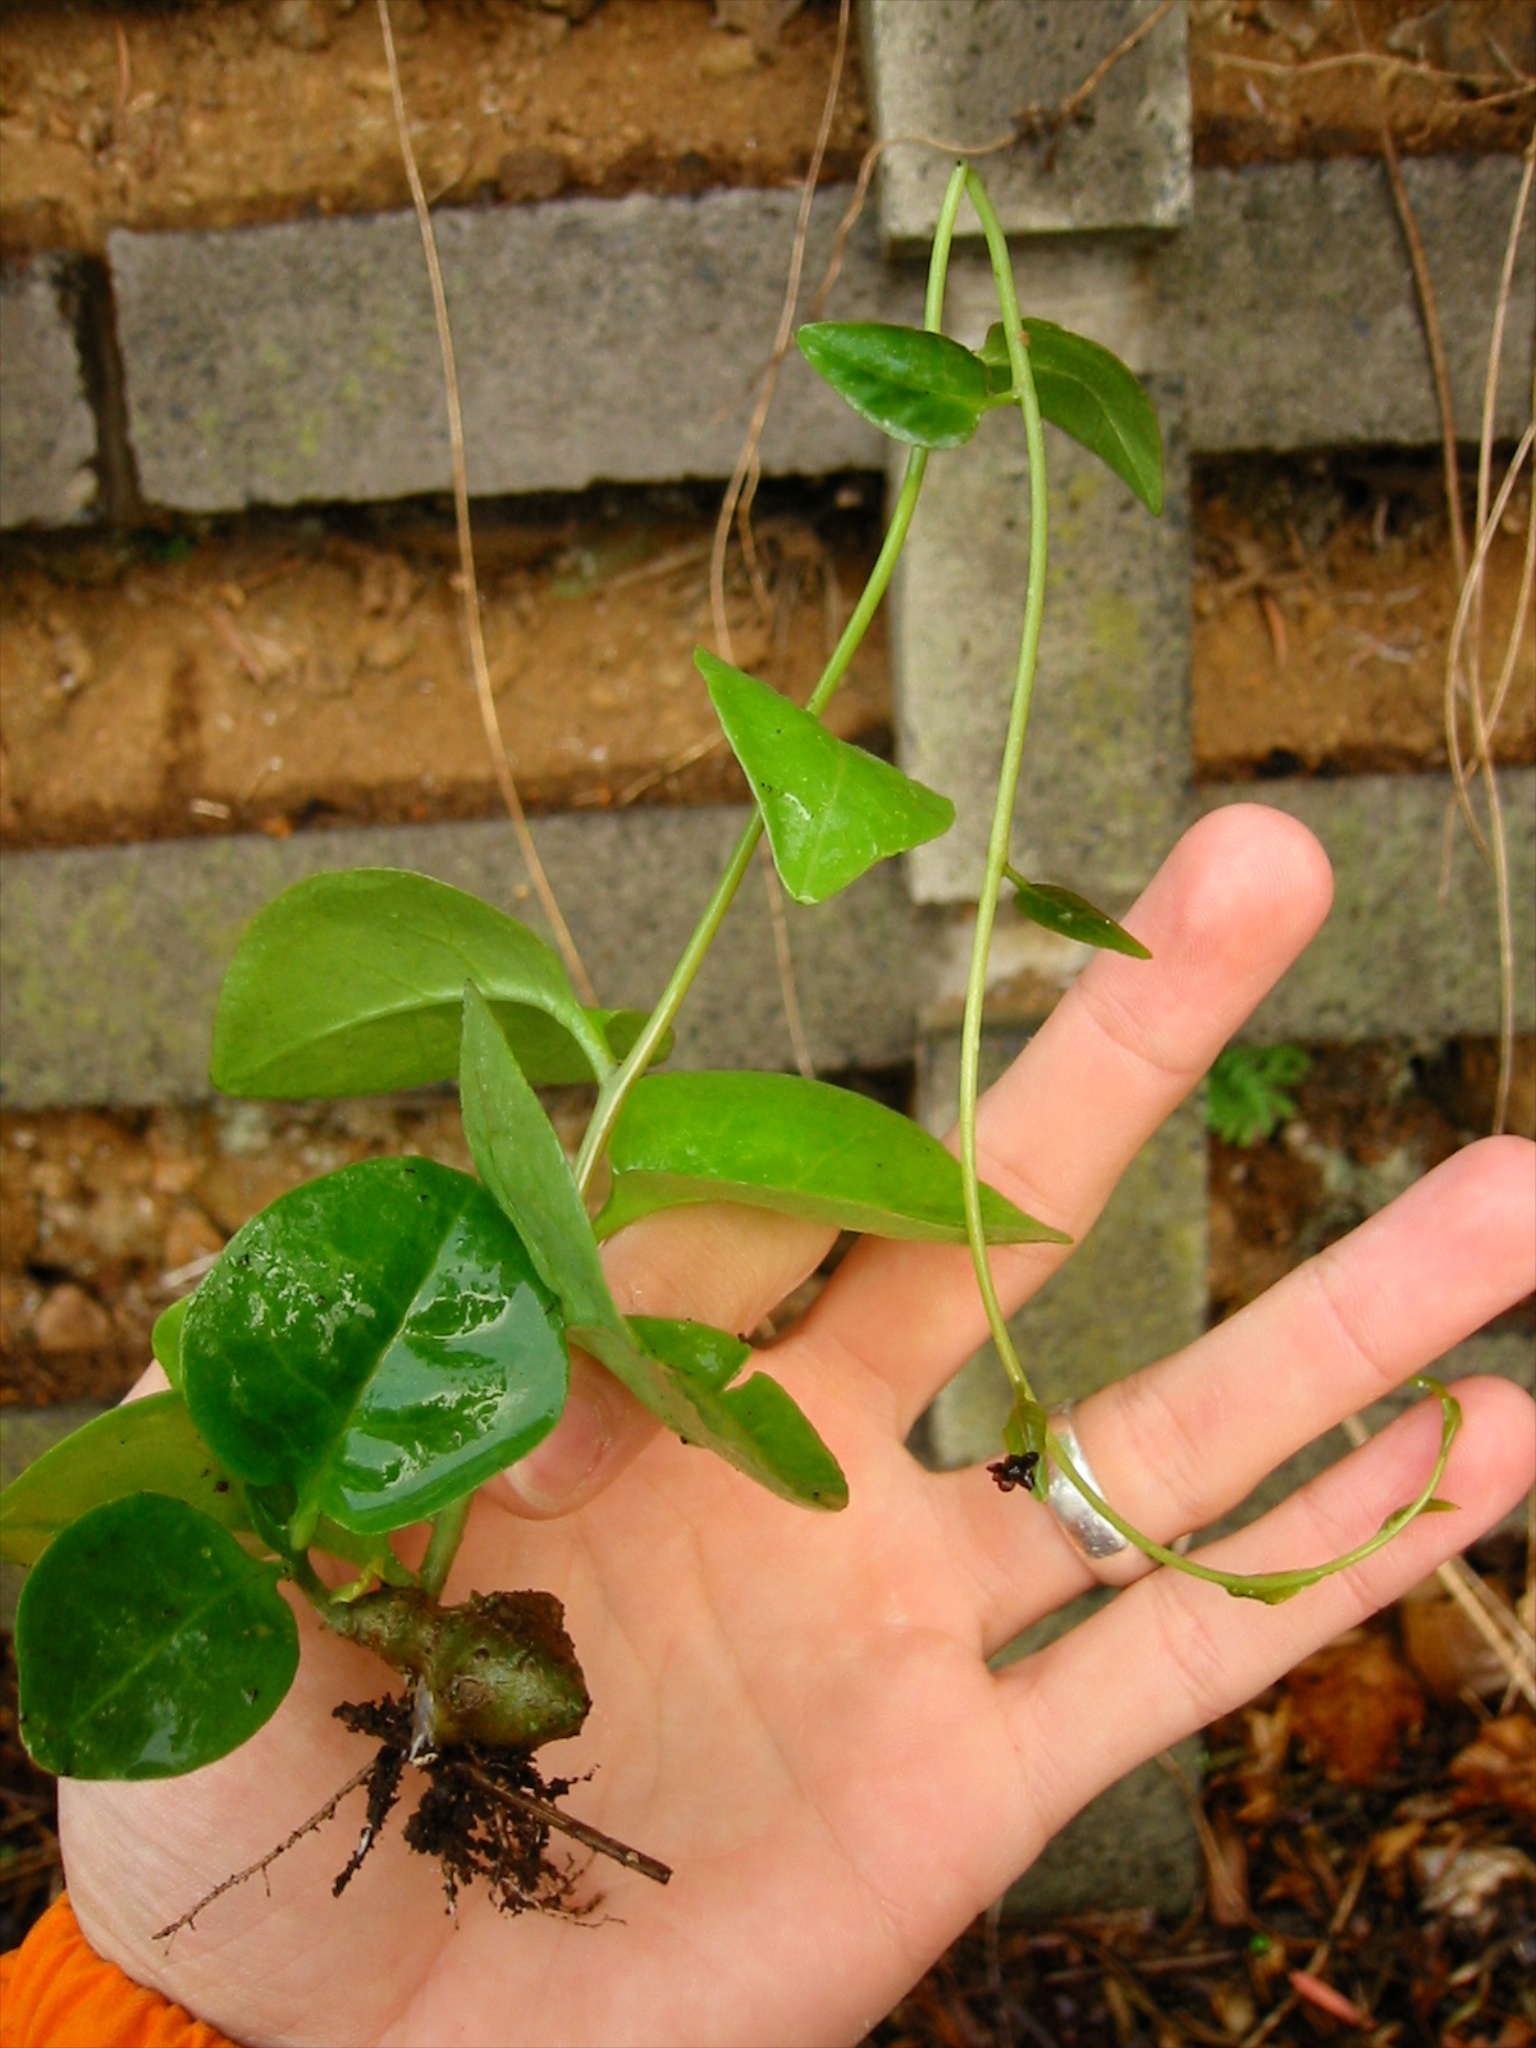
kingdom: Plantae
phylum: Tracheophyta
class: Magnoliopsida
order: Caryophyllales
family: Basellaceae
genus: Anredera
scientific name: Anredera cordifolia
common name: Heartleaf madeiravine
